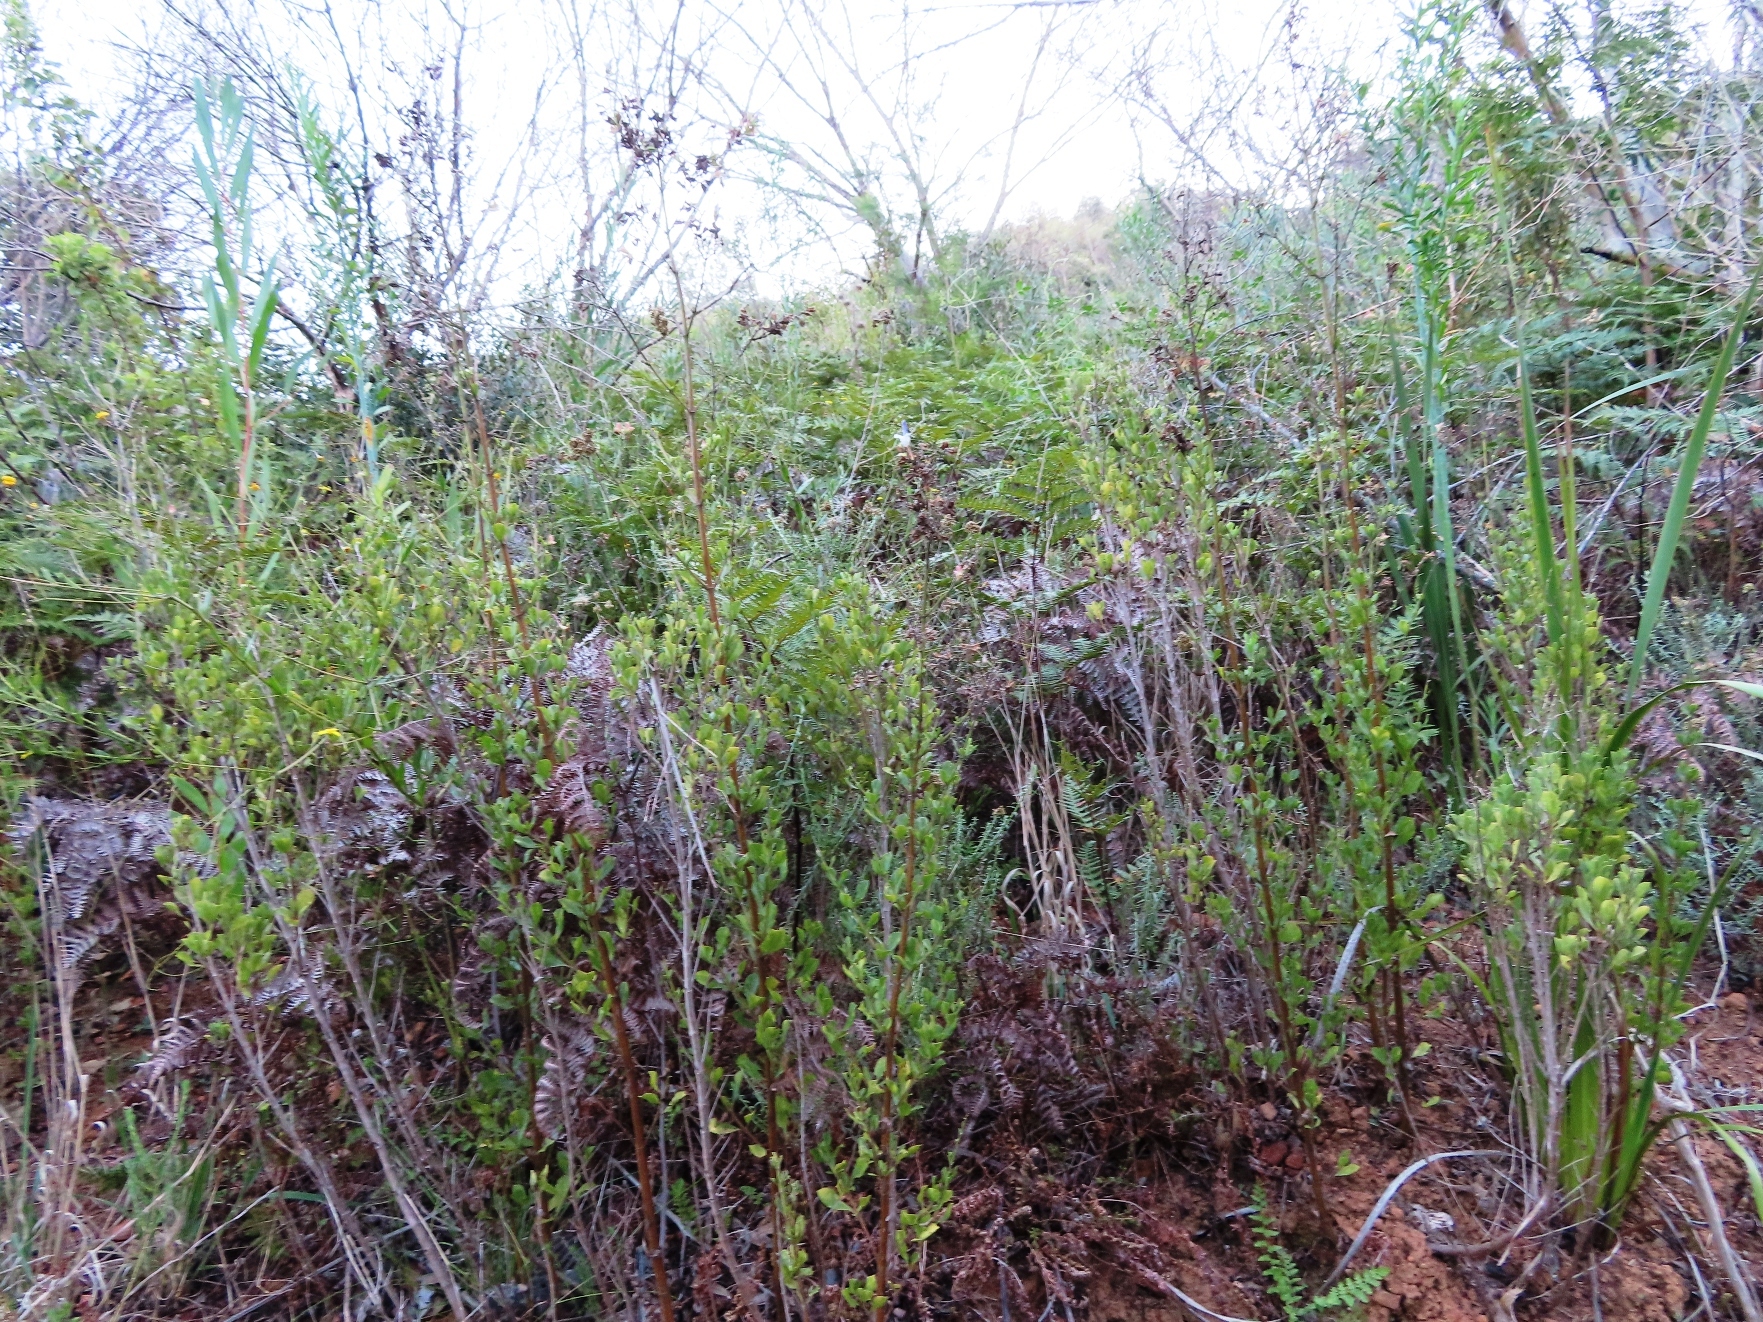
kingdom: Plantae
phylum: Tracheophyta
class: Magnoliopsida
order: Lamiales
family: Lamiaceae
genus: Salvia
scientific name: Salvia chamelaeagnea
